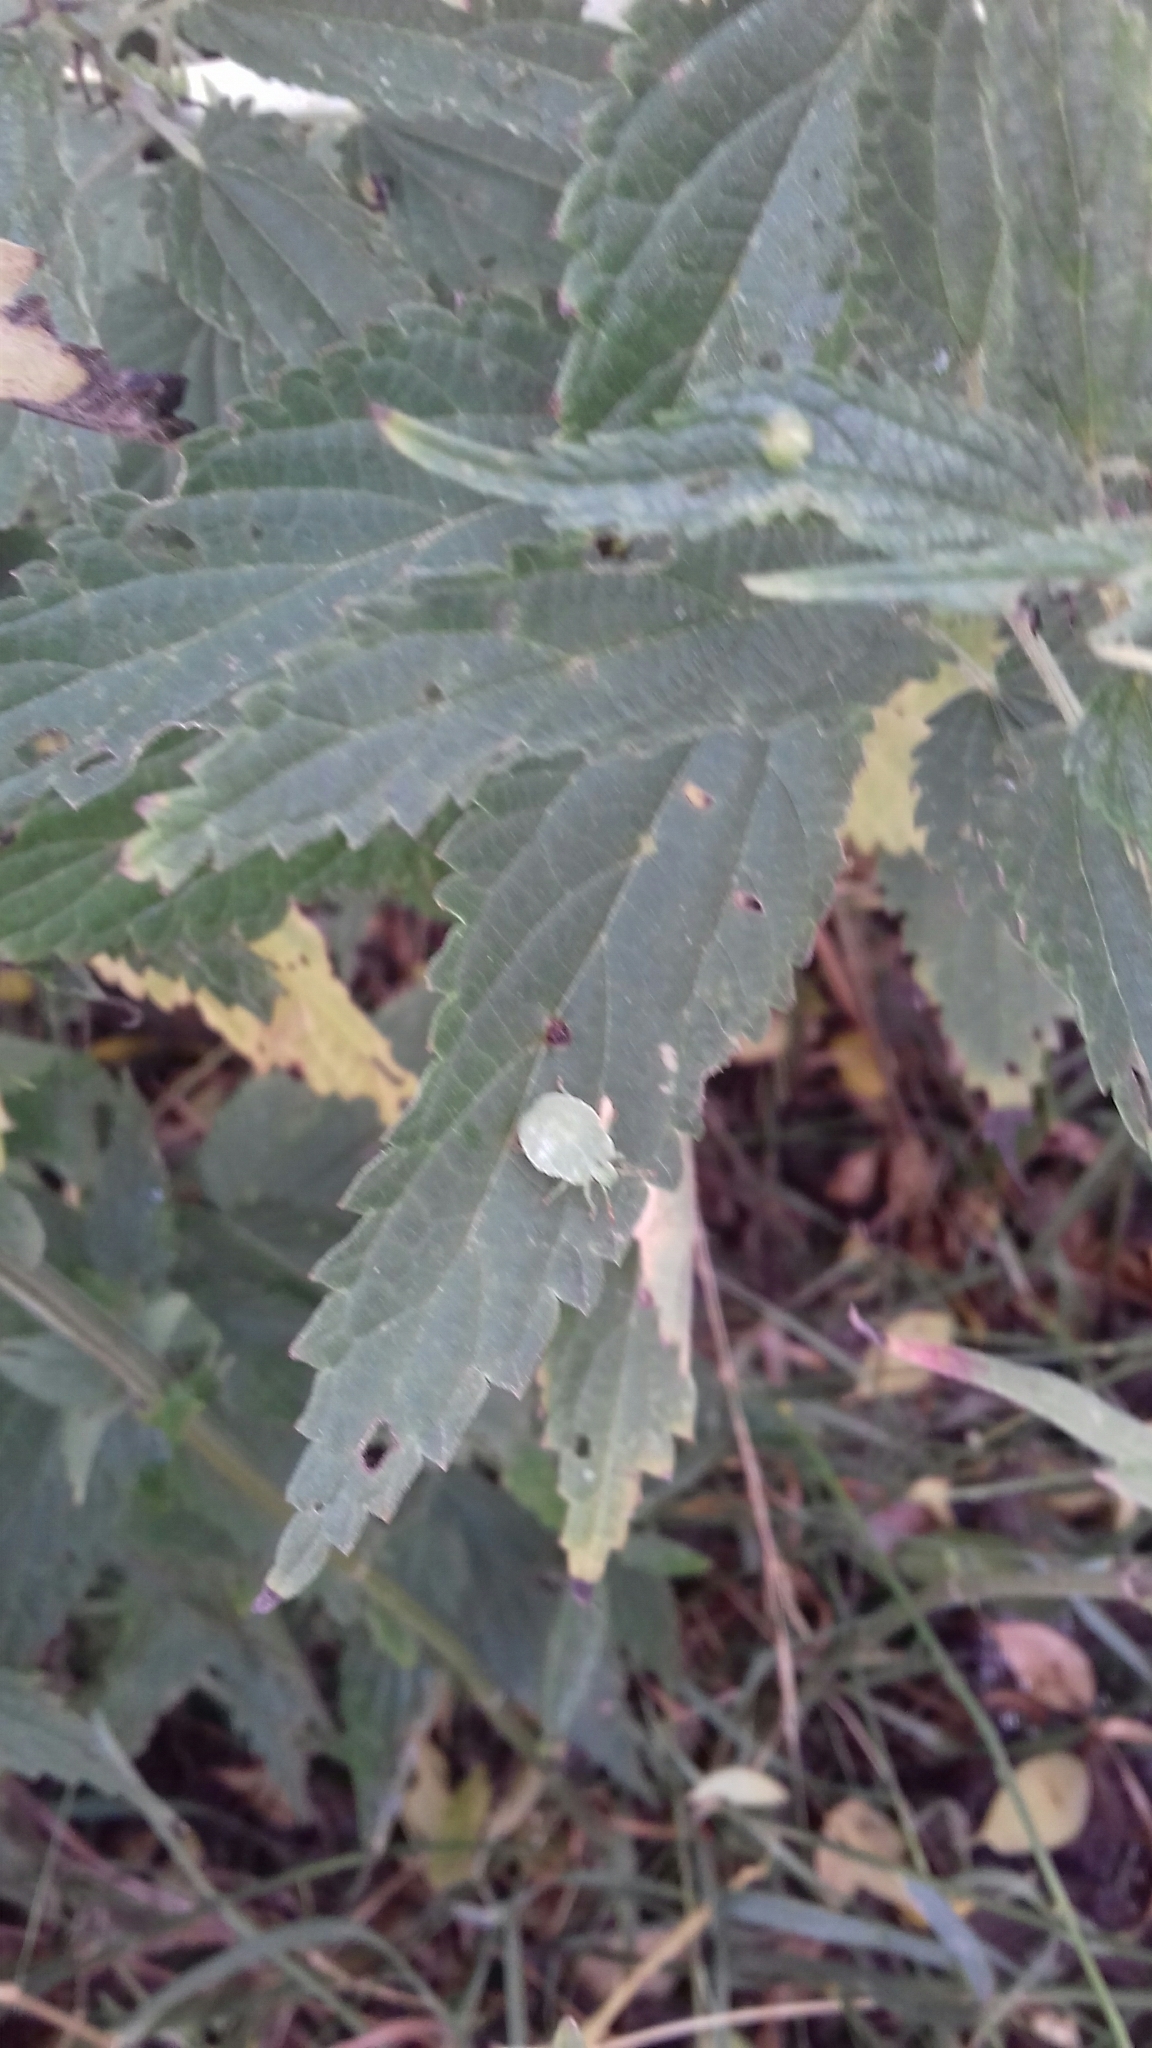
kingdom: Animalia
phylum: Arthropoda
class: Insecta
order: Hemiptera
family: Pentatomidae
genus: Palomena
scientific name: Palomena prasina
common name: Green shieldbug
